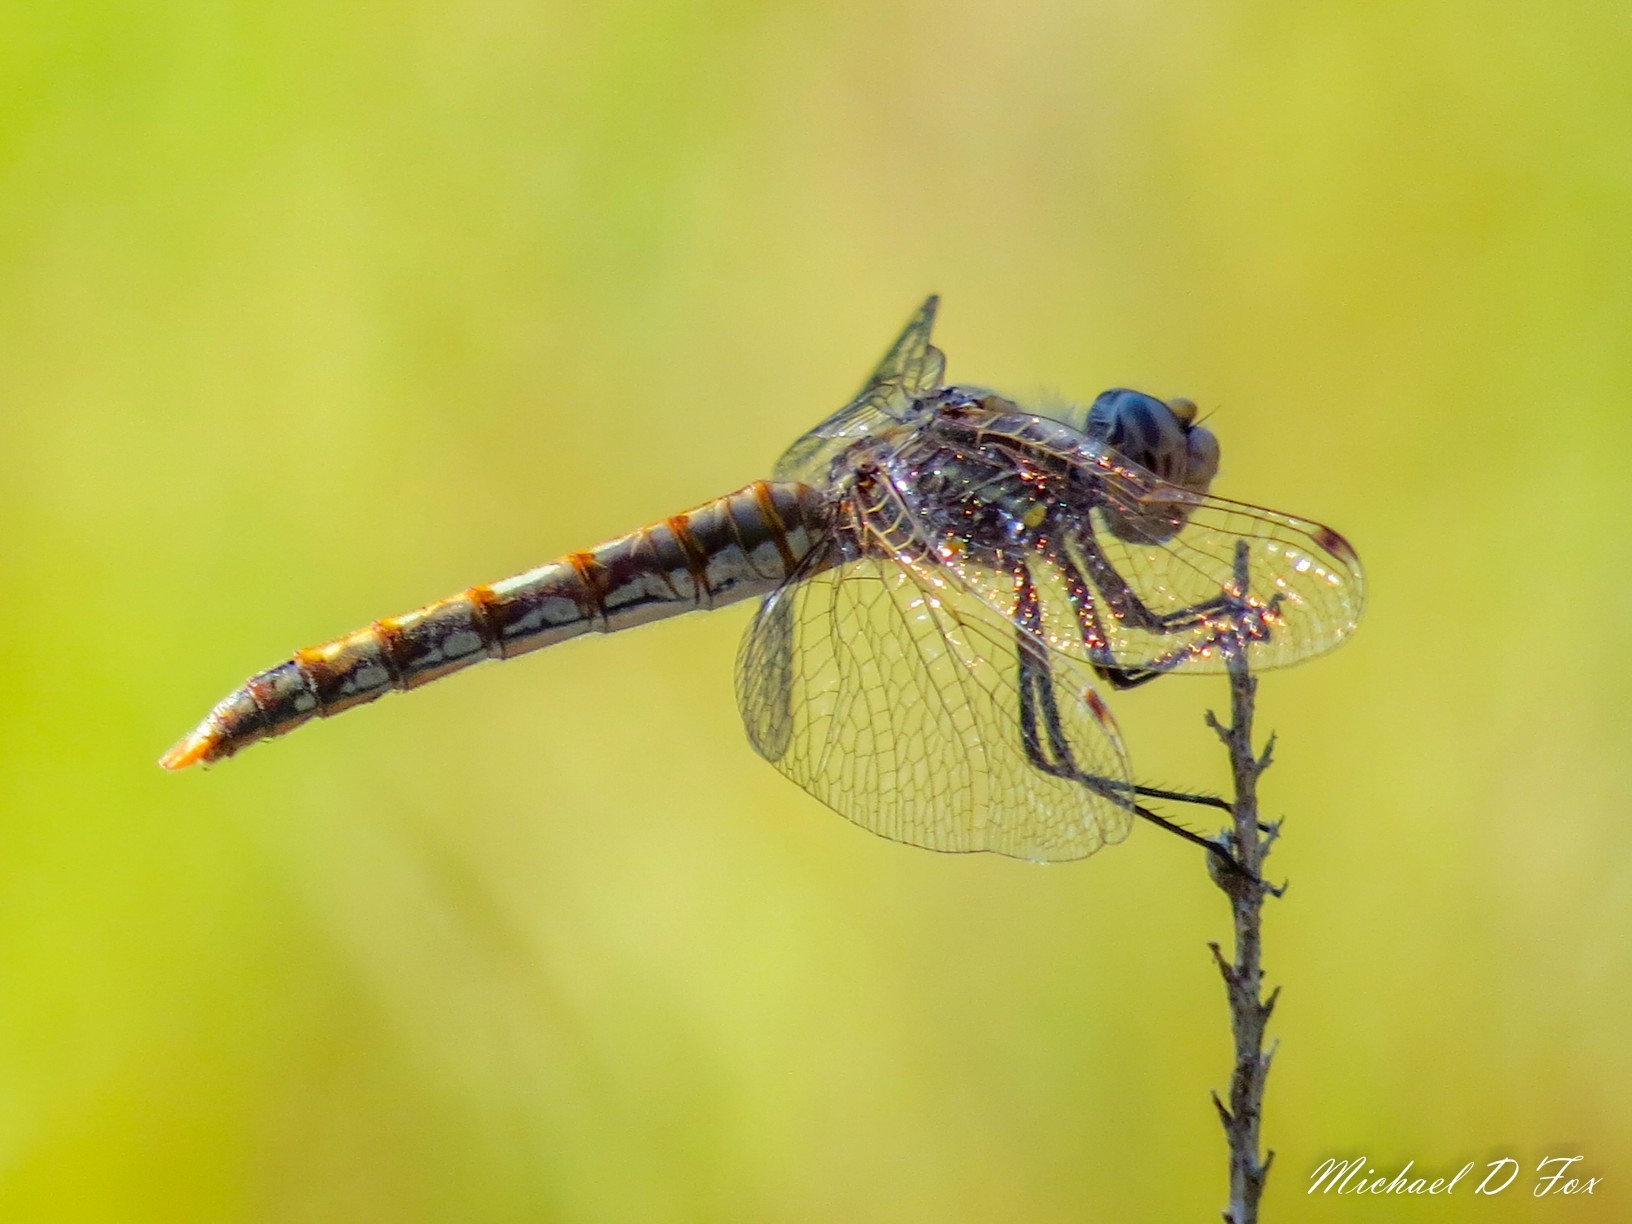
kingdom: Animalia
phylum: Arthropoda
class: Insecta
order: Odonata
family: Libellulidae
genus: Sympetrum
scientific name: Sympetrum corruptum
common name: Variegated meadowhawk
